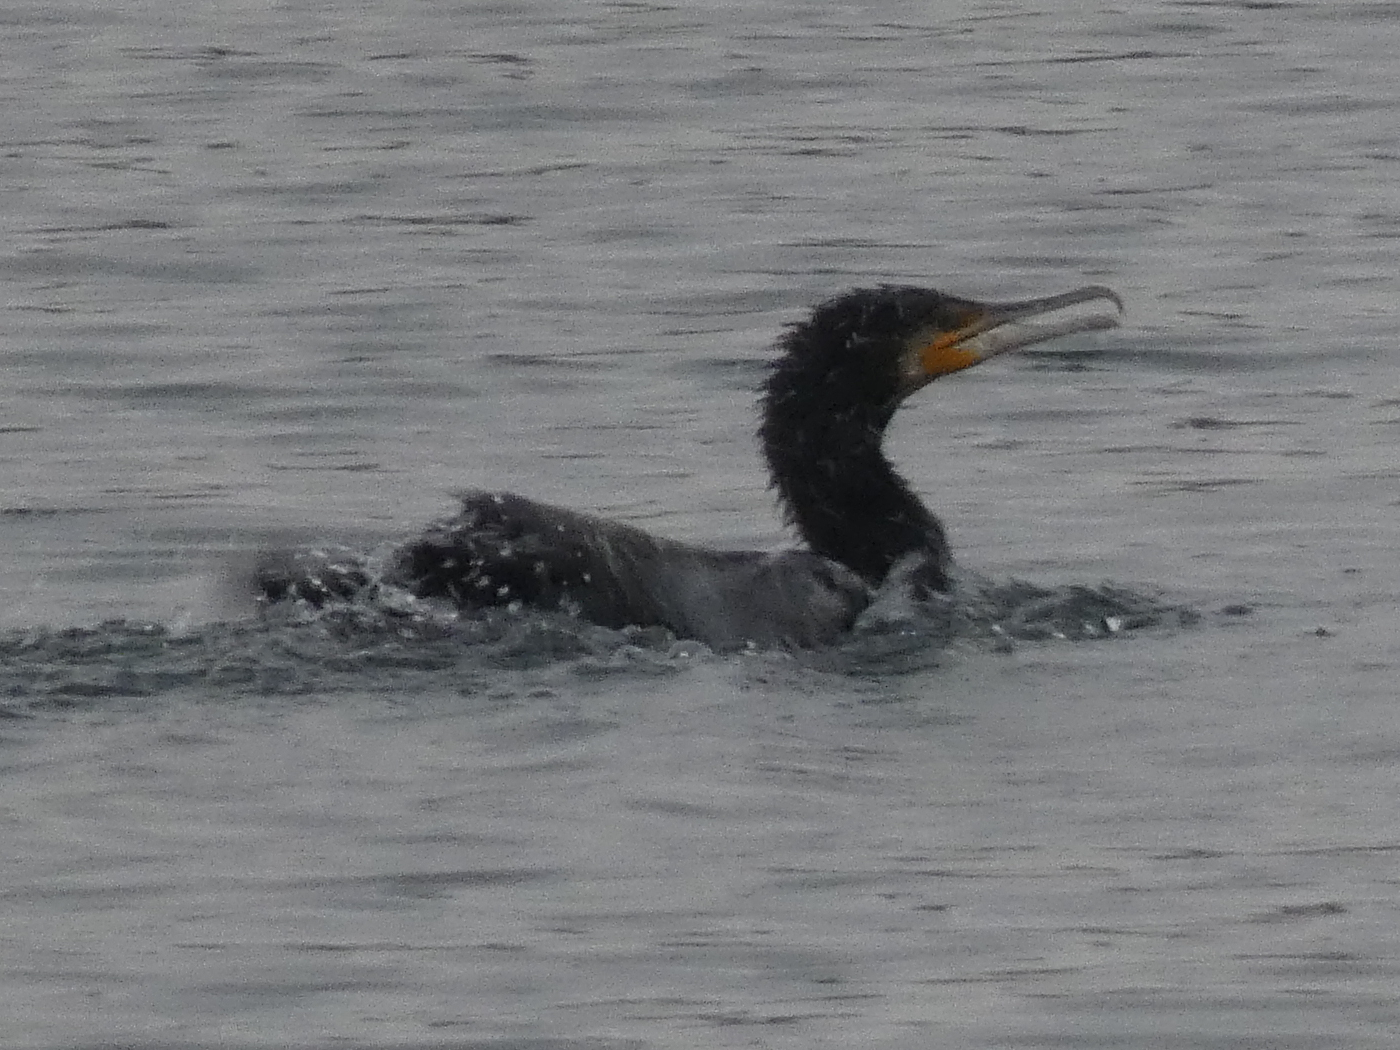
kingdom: Animalia
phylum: Chordata
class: Aves
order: Suliformes
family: Phalacrocoracidae
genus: Phalacrocorax
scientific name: Phalacrocorax carbo
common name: Great cormorant
